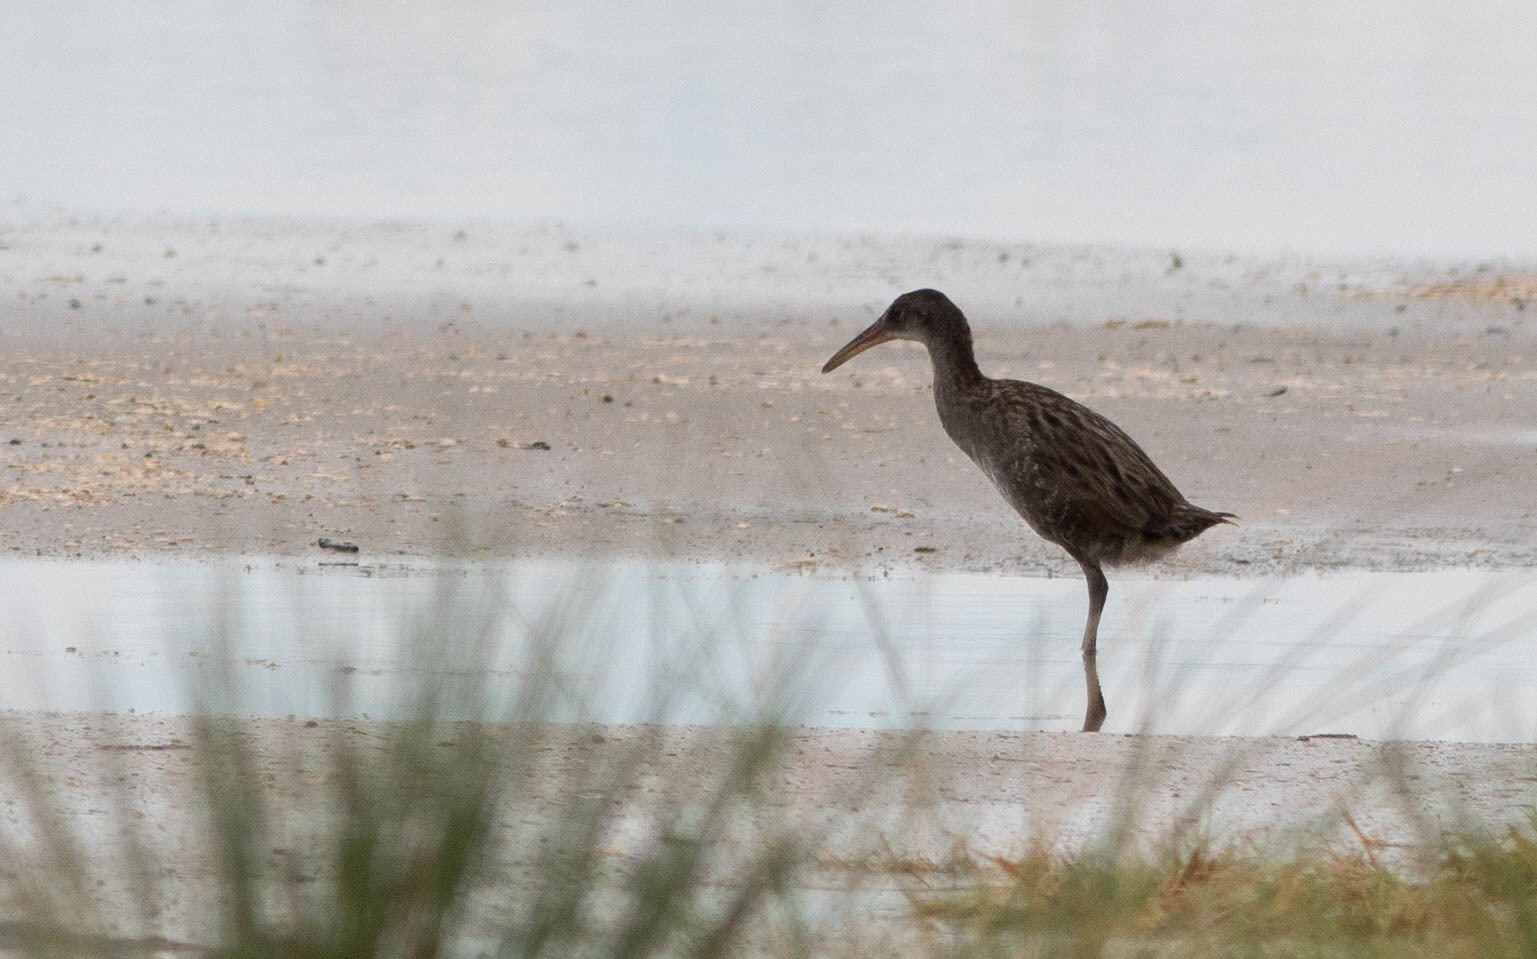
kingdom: Animalia
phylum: Chordata
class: Aves
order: Gruiformes
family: Rallidae
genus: Rallus
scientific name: Rallus crepitans
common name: Clapper rail
